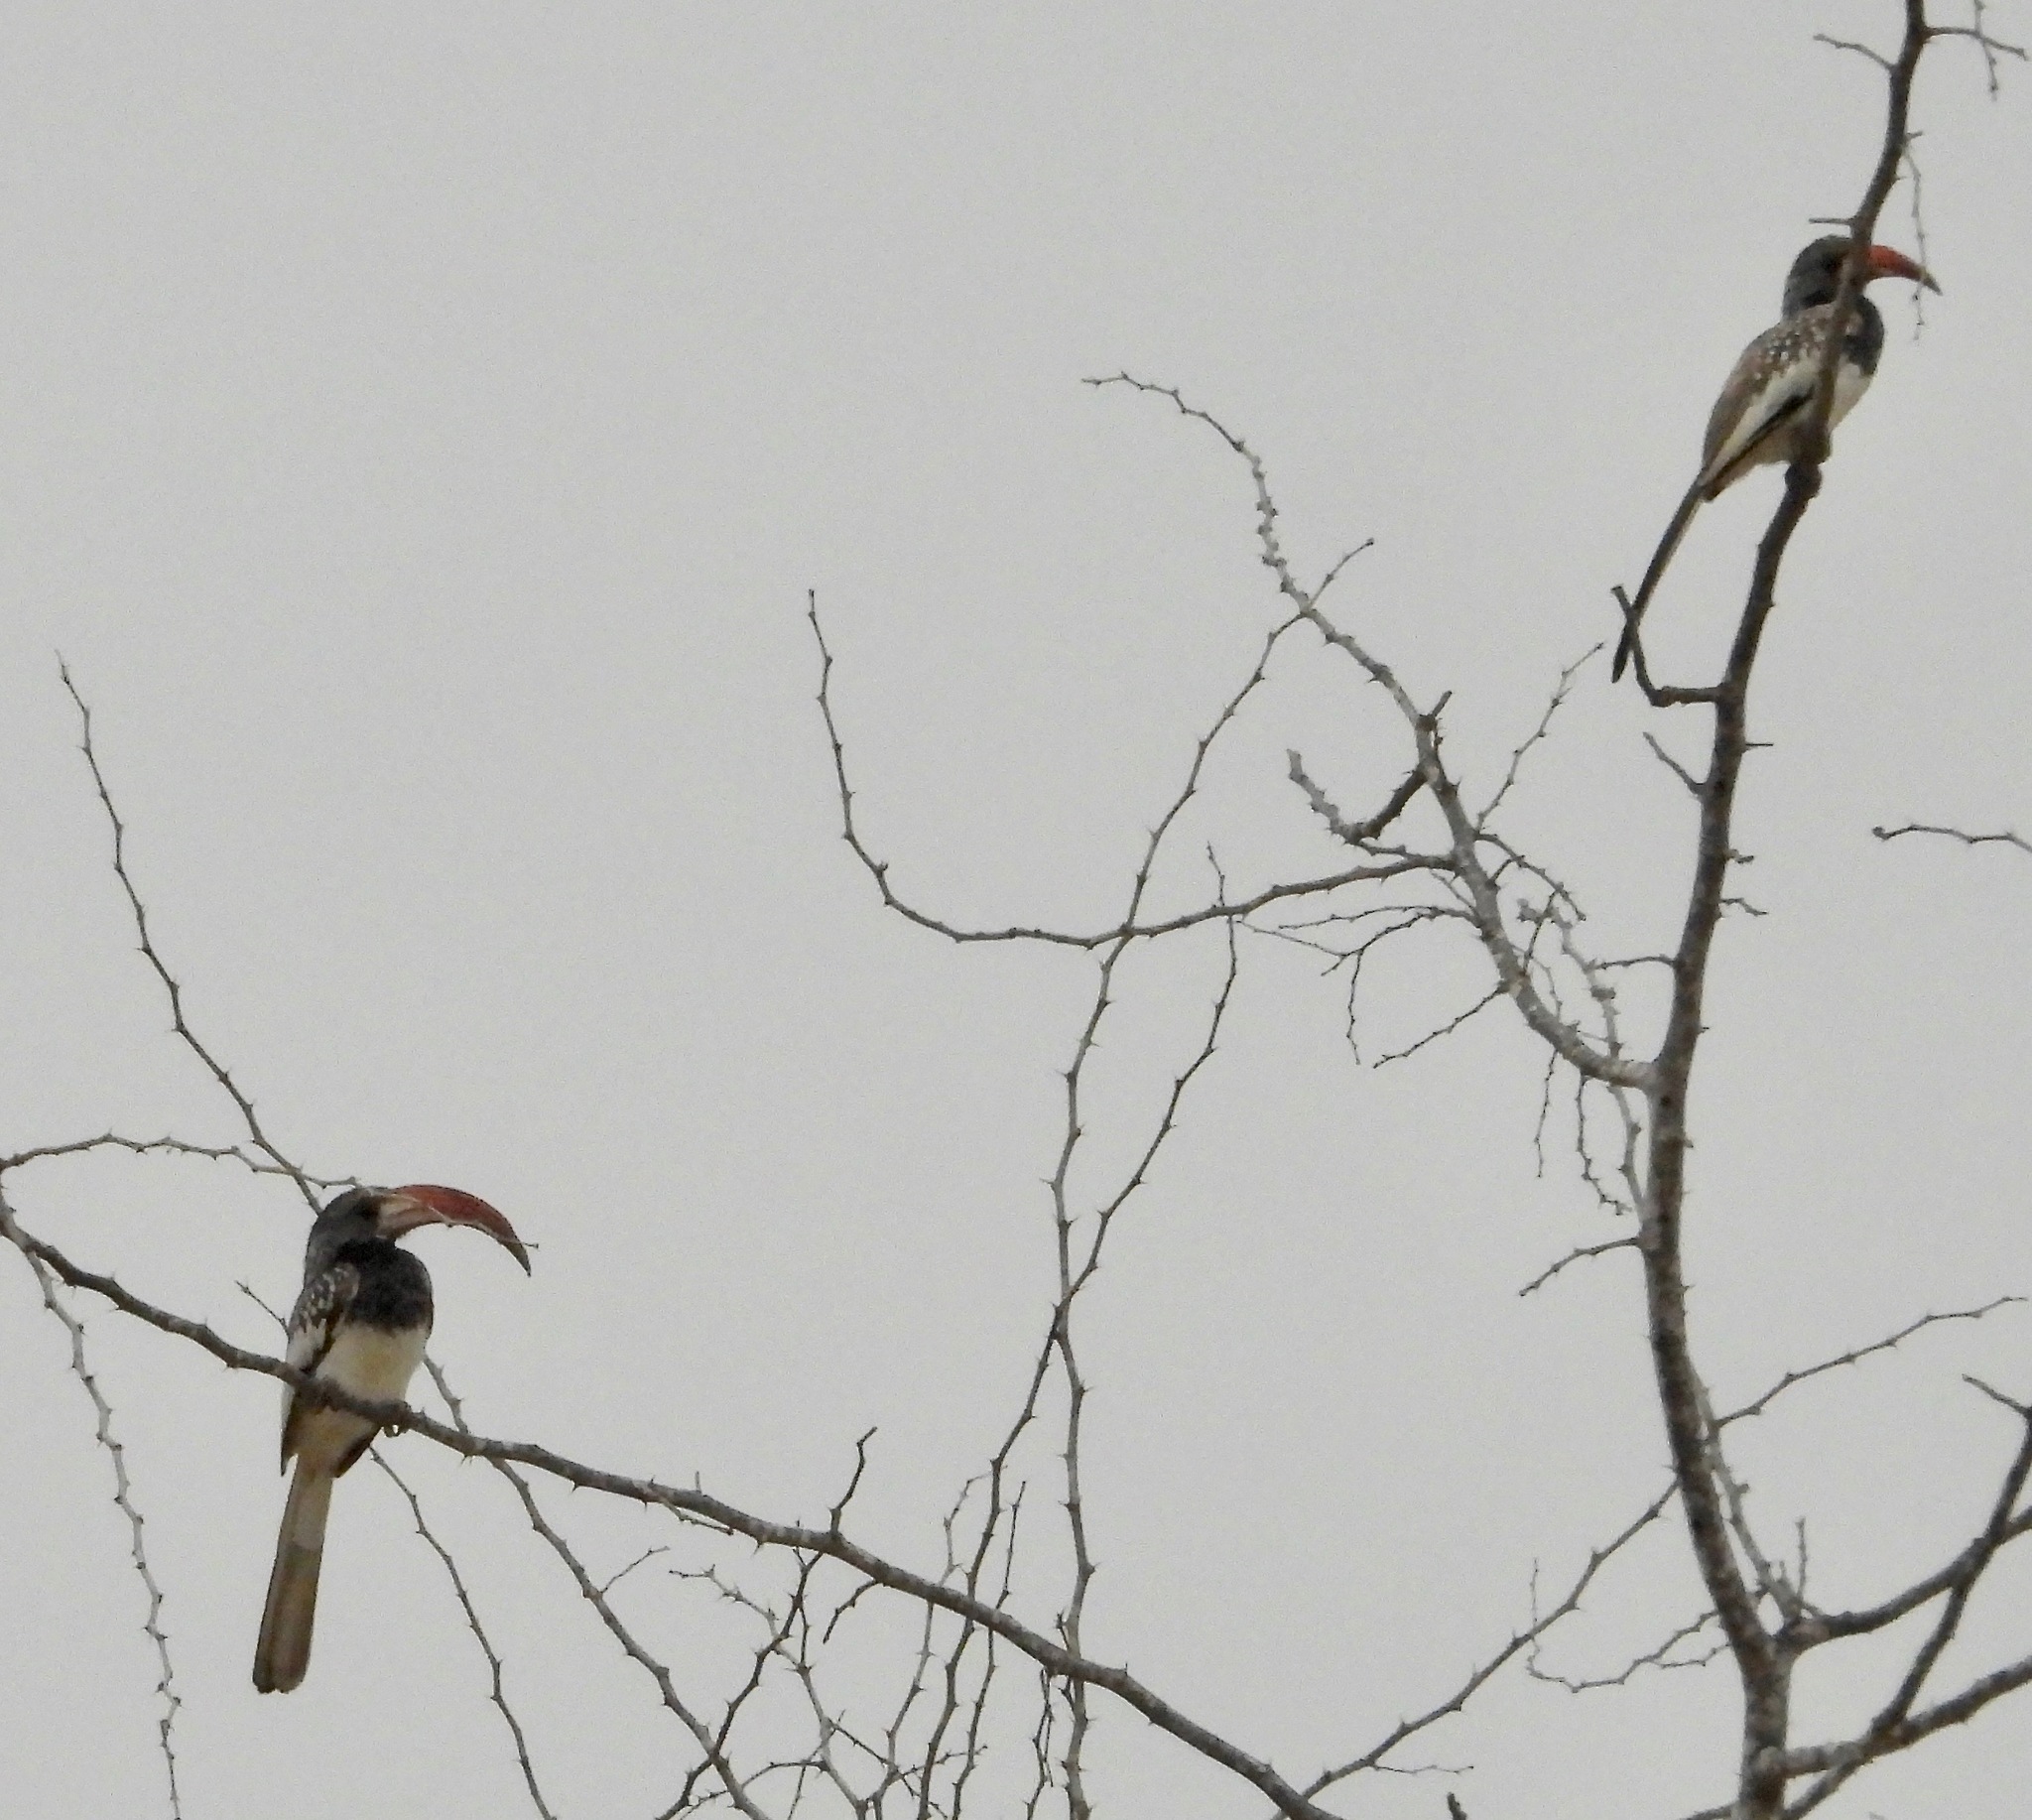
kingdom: Animalia
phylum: Chordata
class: Aves
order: Bucerotiformes
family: Bucerotidae
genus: Tockus
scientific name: Tockus monteiri
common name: Monteiro's hornbill
